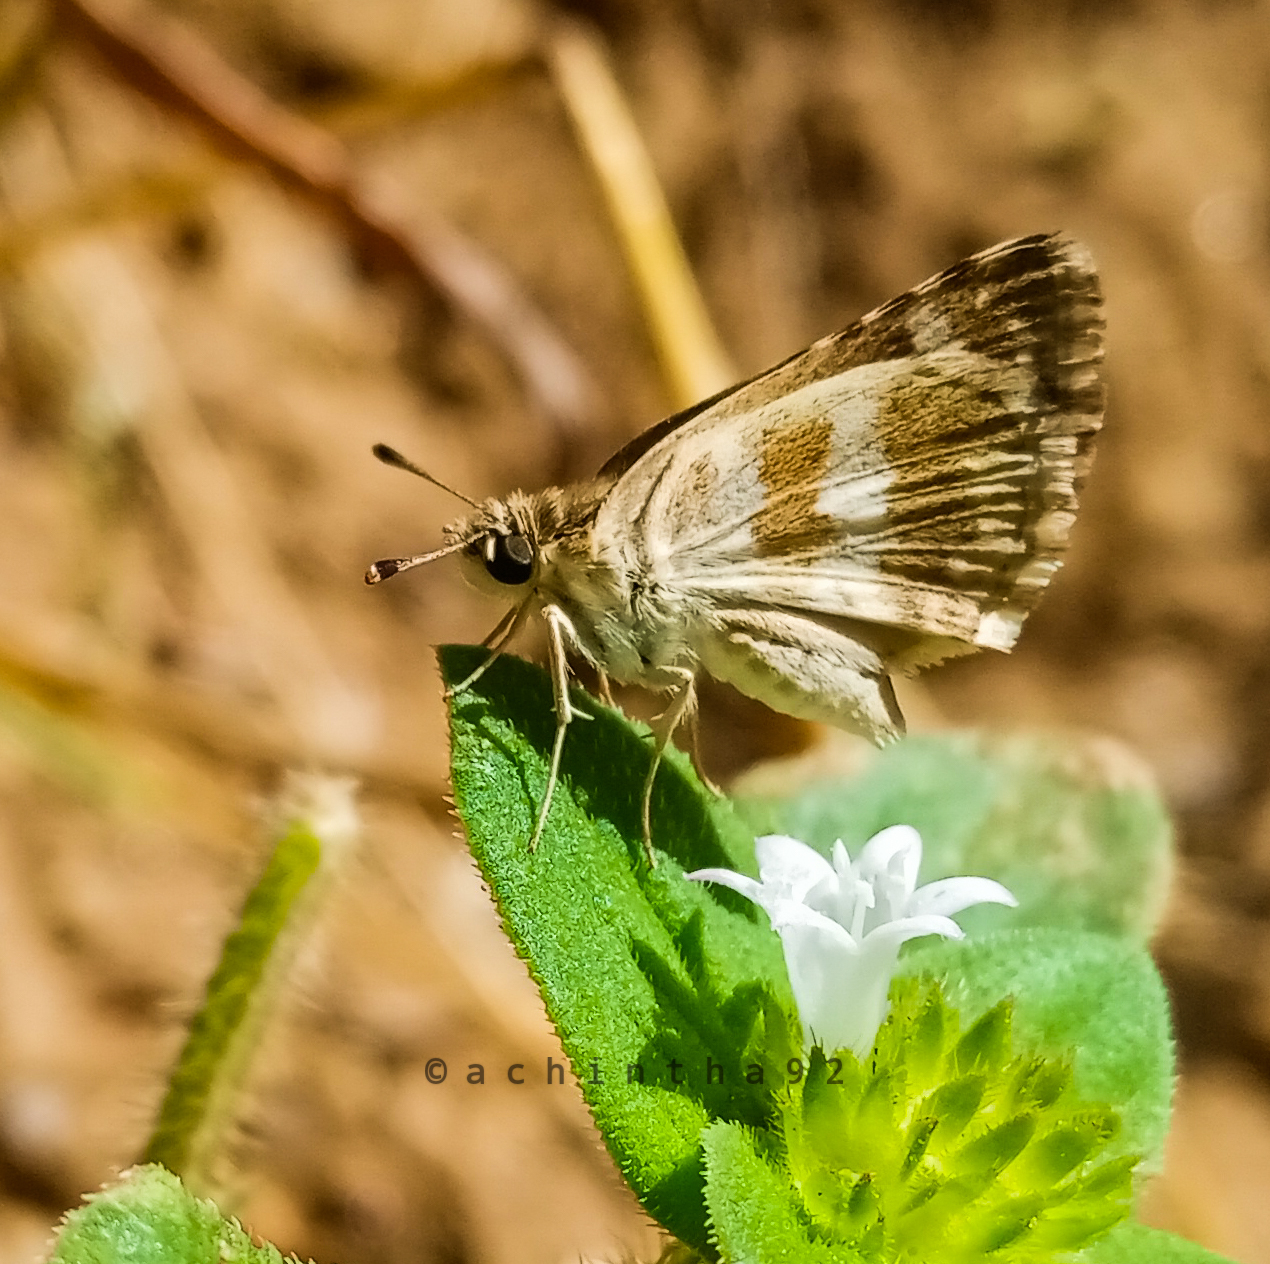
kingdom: Animalia
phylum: Arthropoda
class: Insecta
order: Lepidoptera
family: Hesperiidae
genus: Spialia
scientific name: Spialia galba
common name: Indian skipper
